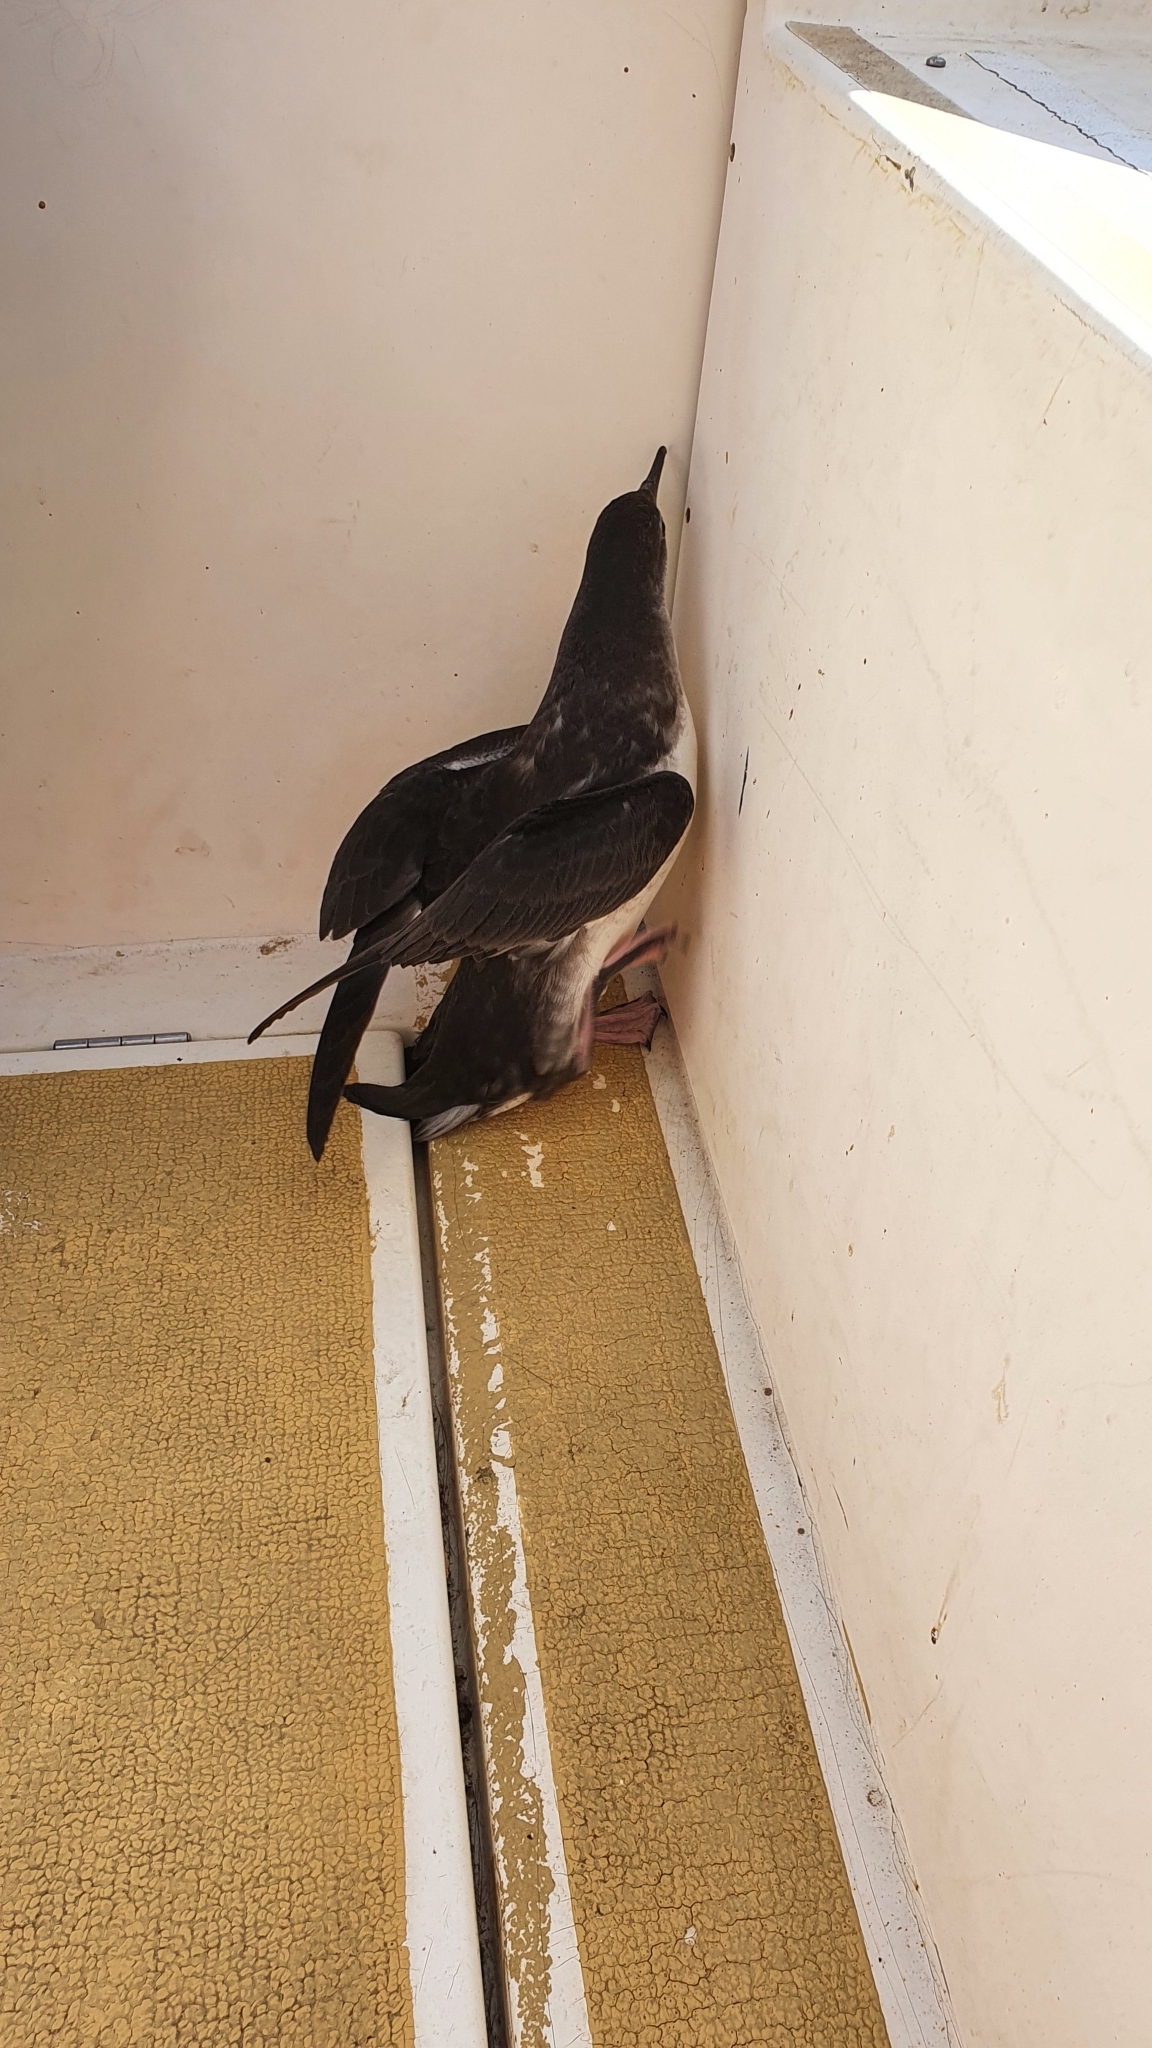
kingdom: Animalia
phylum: Chordata
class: Aves
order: Procellariiformes
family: Procellariidae
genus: Puffinus
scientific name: Puffinus yelkouan
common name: Yelkouan shearwater
